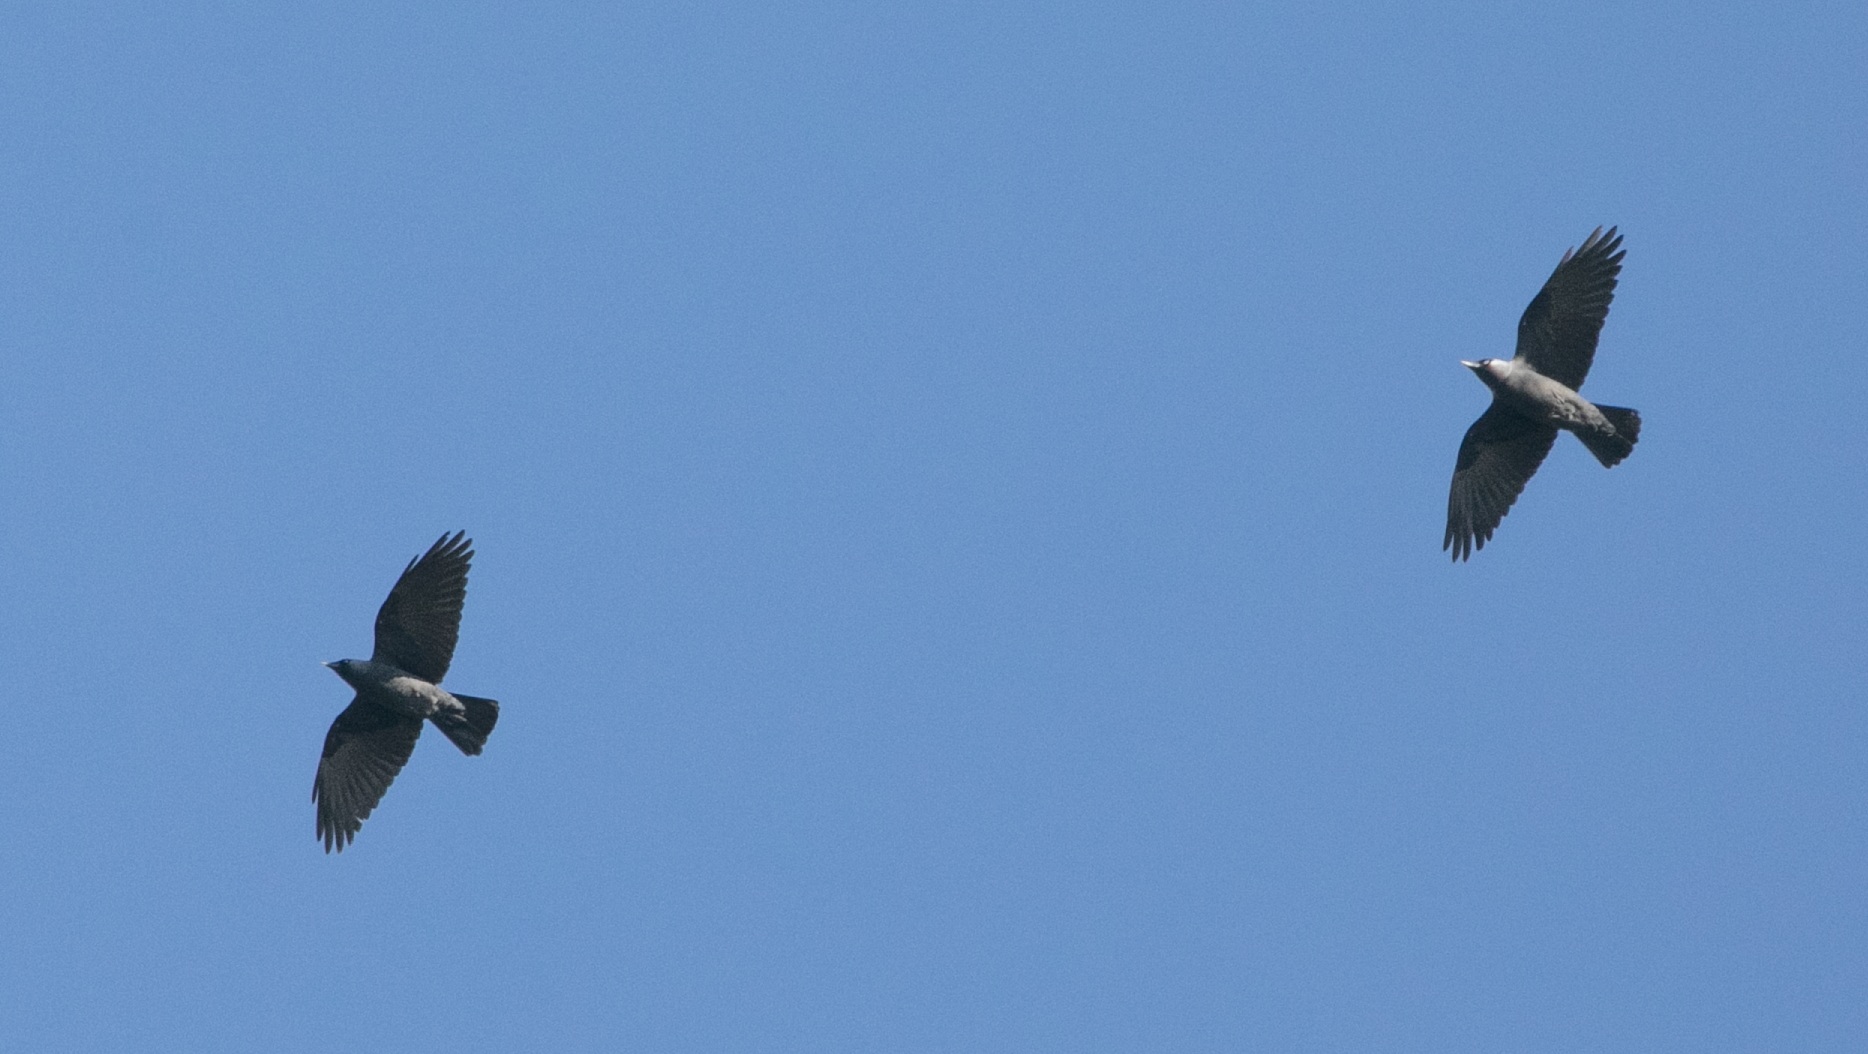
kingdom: Animalia
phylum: Chordata
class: Aves
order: Passeriformes
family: Corvidae
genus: Coloeus
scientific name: Coloeus monedula
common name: Western jackdaw
